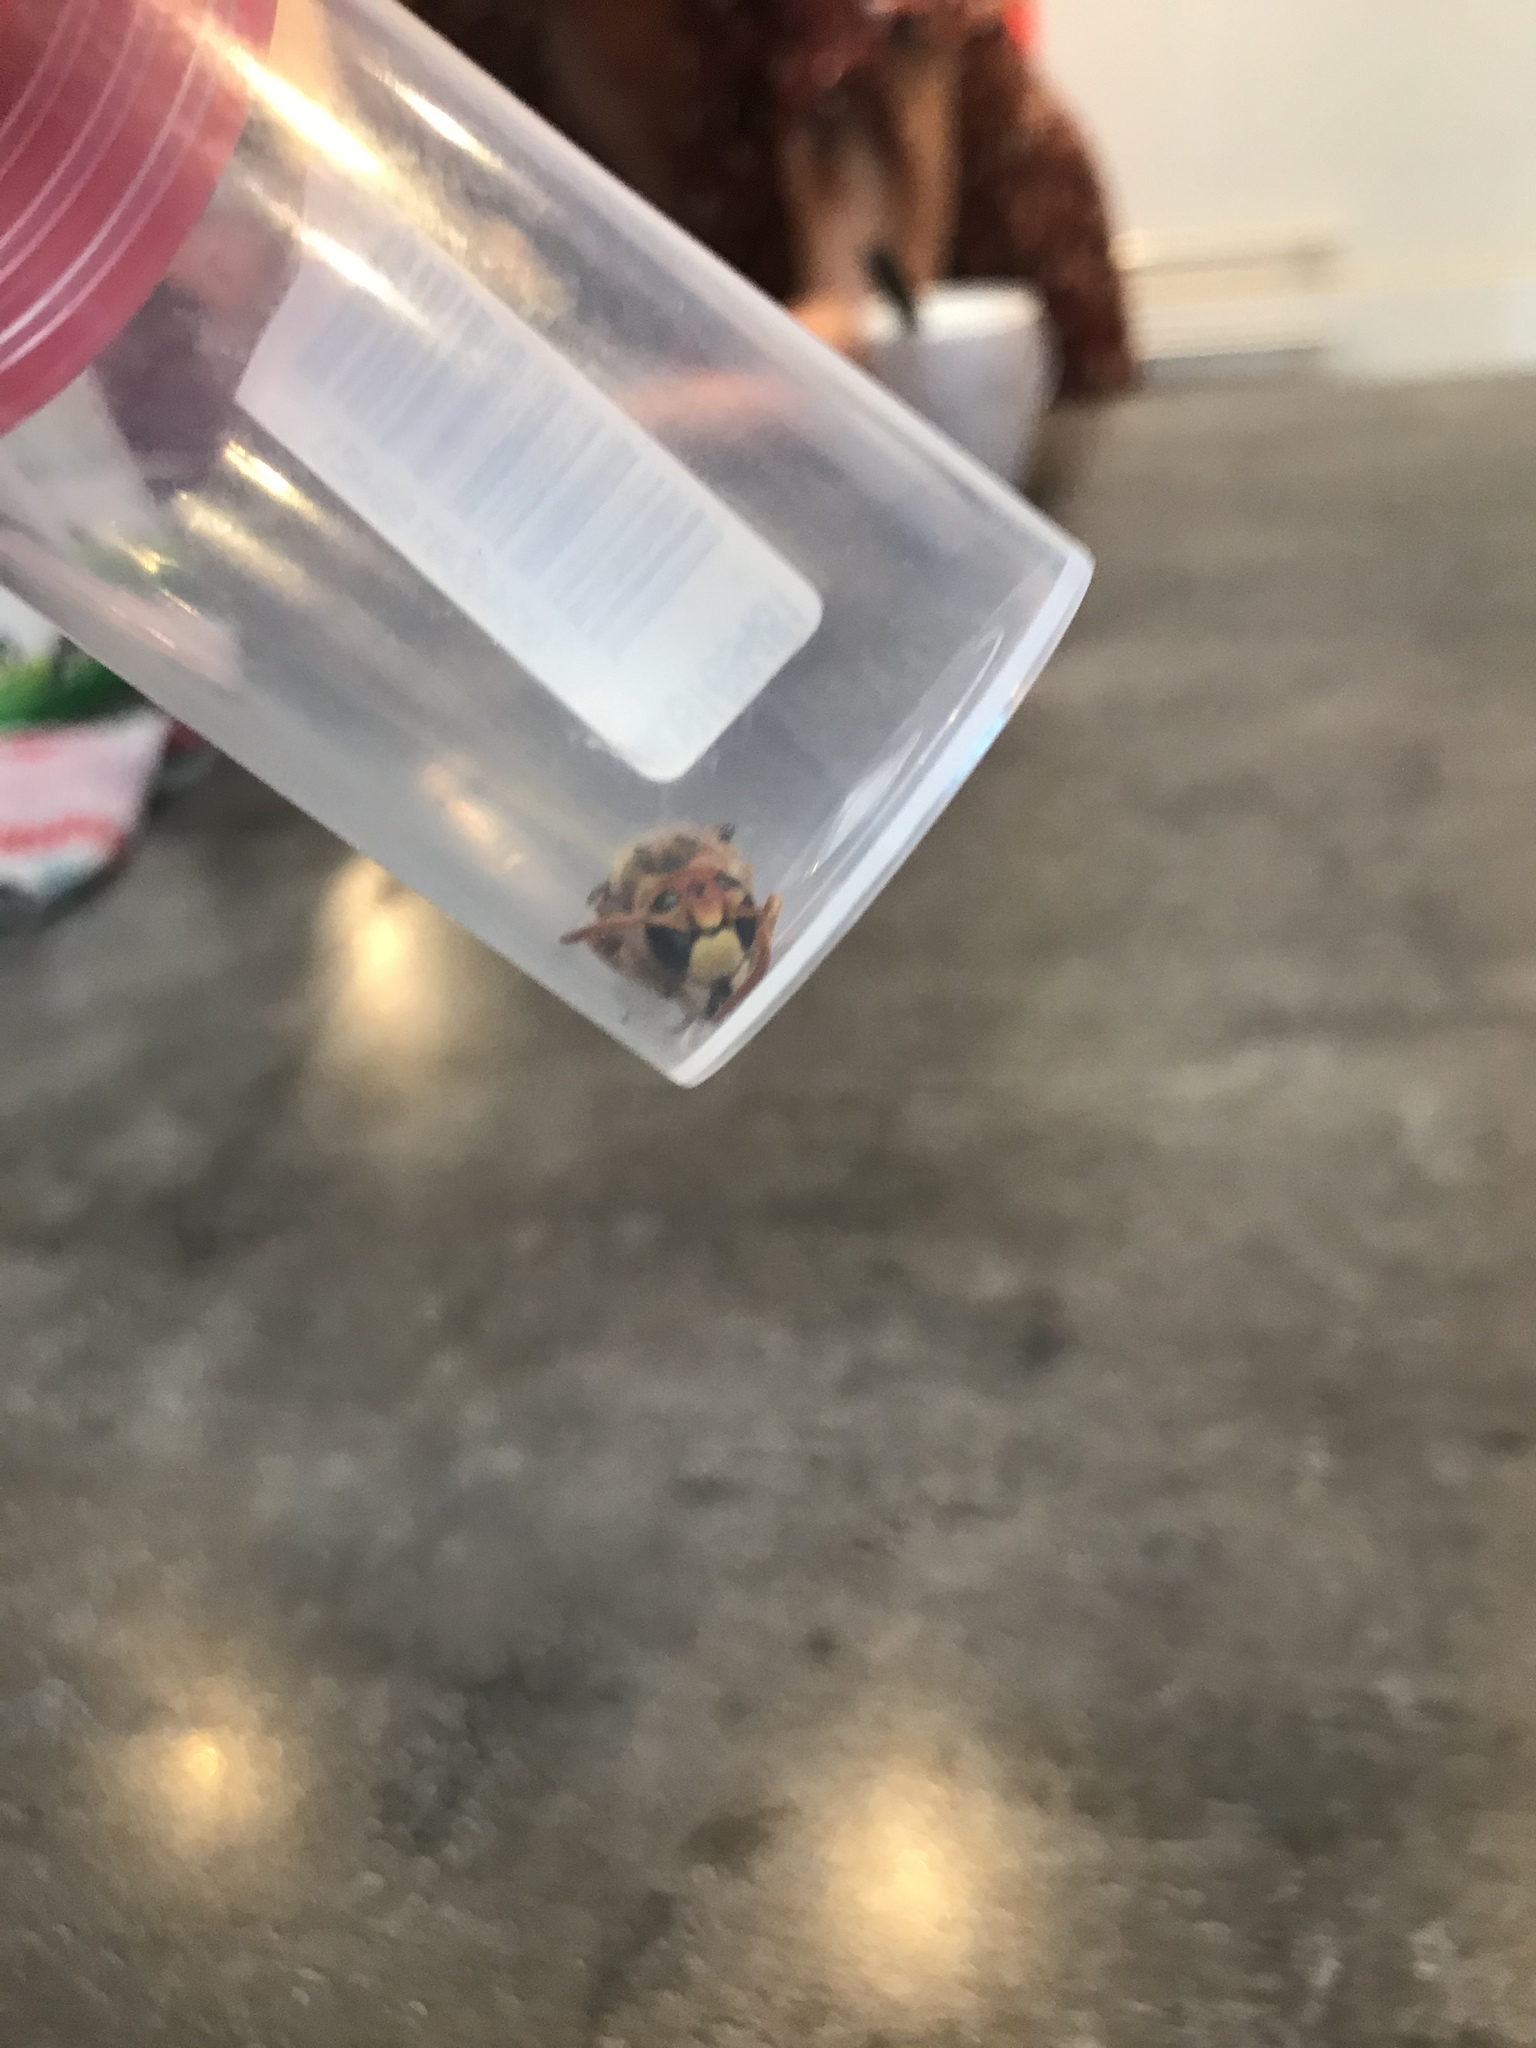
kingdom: Animalia
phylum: Arthropoda
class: Insecta
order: Hymenoptera
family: Vespidae
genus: Vespa
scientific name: Vespa crabro
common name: Hornet
